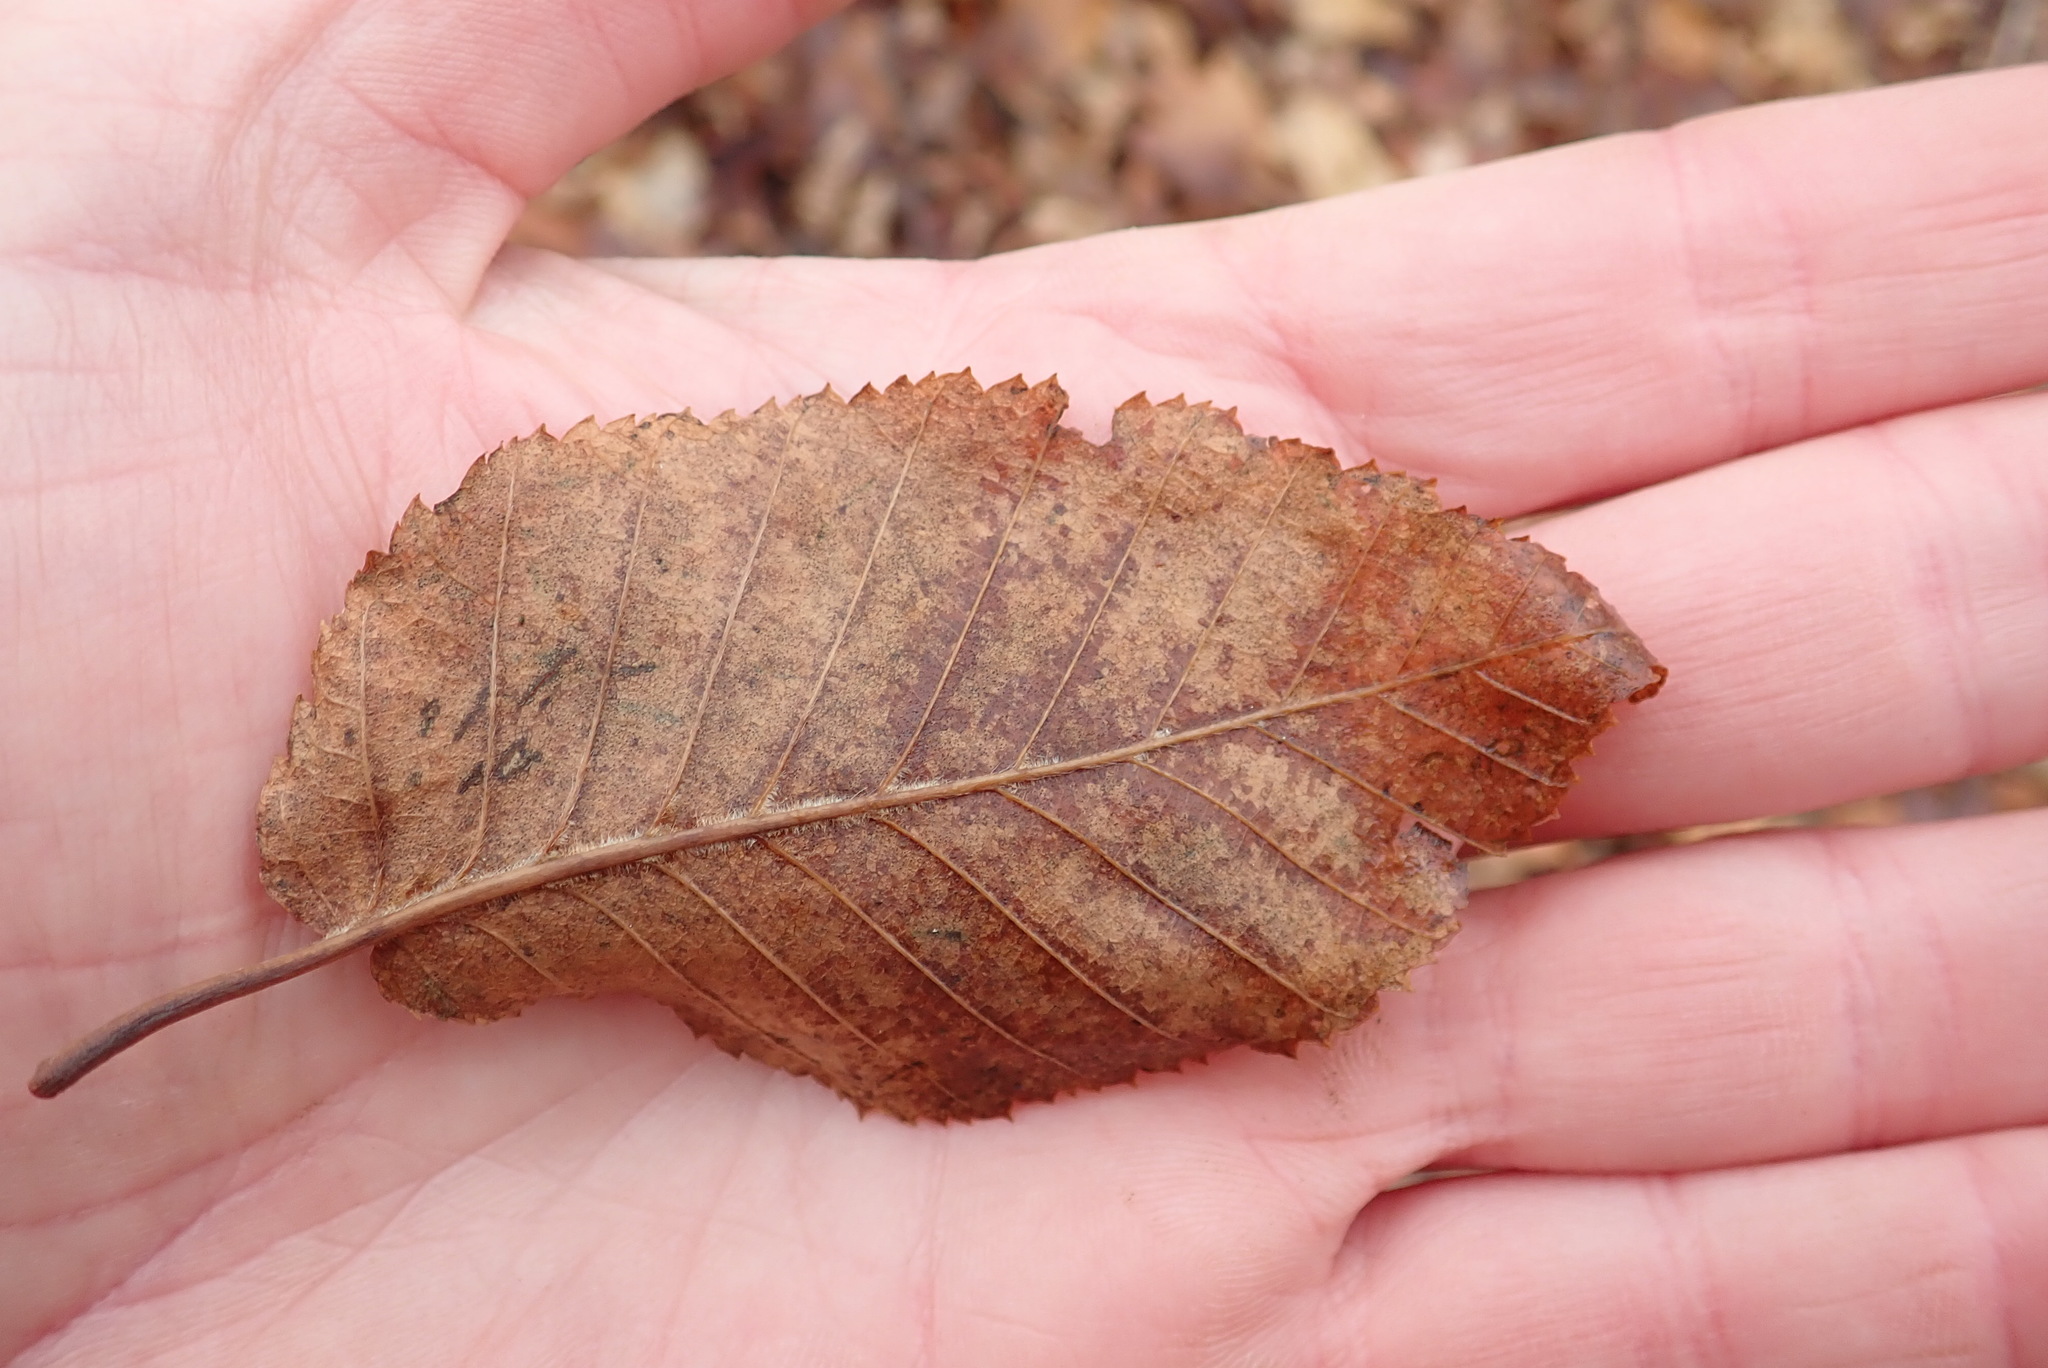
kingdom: Plantae
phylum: Tracheophyta
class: Magnoliopsida
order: Fagales
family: Betulaceae
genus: Betula
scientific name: Betula alleghaniensis
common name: Yellow birch
